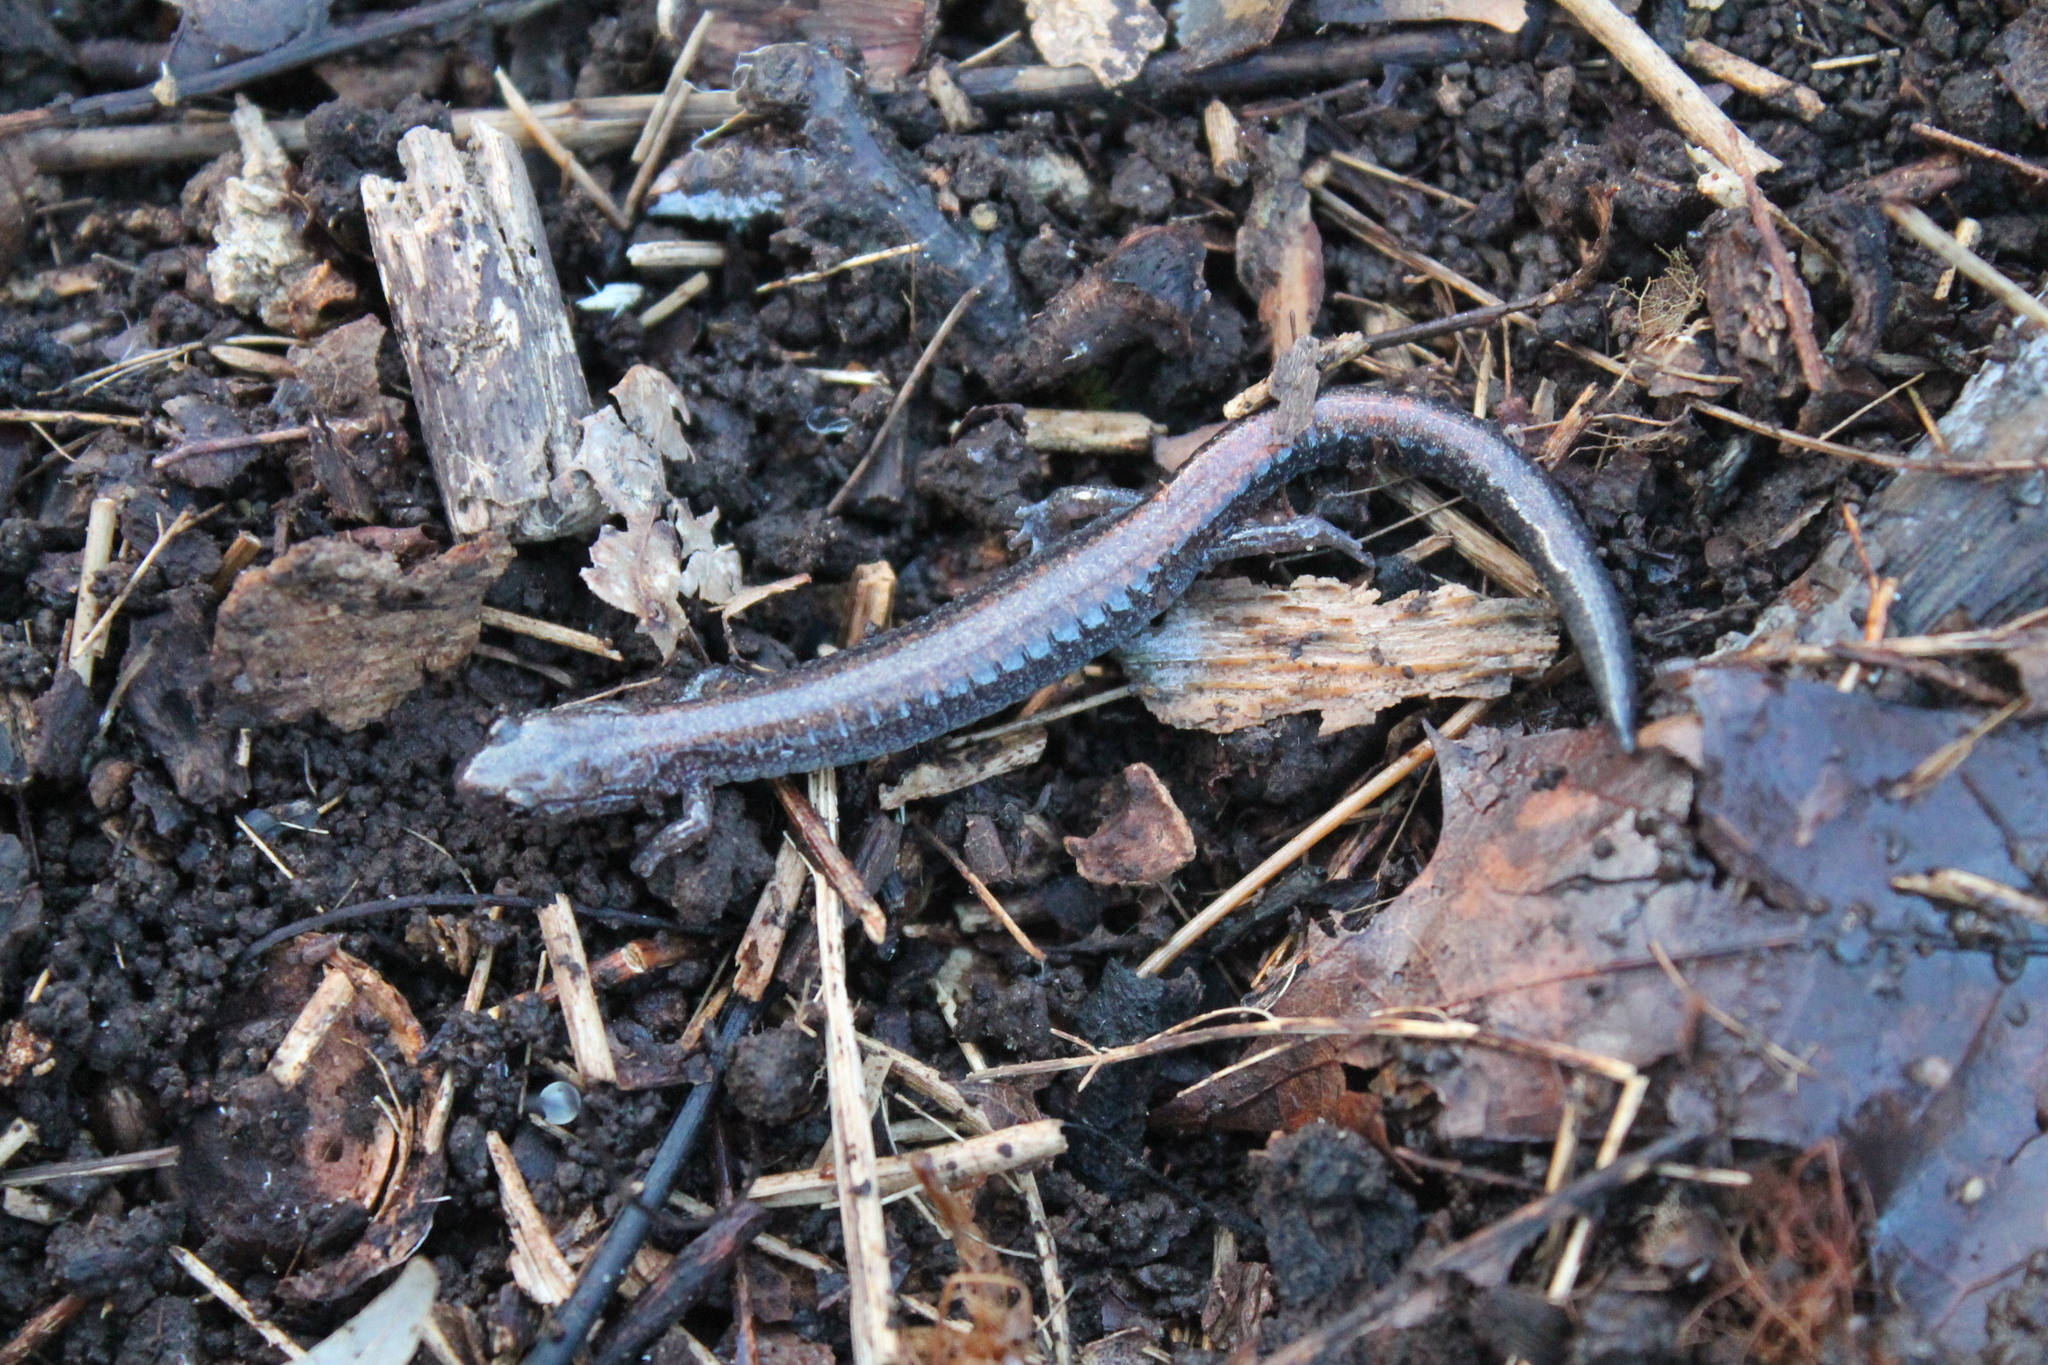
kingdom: Animalia
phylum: Chordata
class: Amphibia
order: Caudata
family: Plethodontidae
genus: Plethodon
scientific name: Plethodon cinereus
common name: Redback salamander
